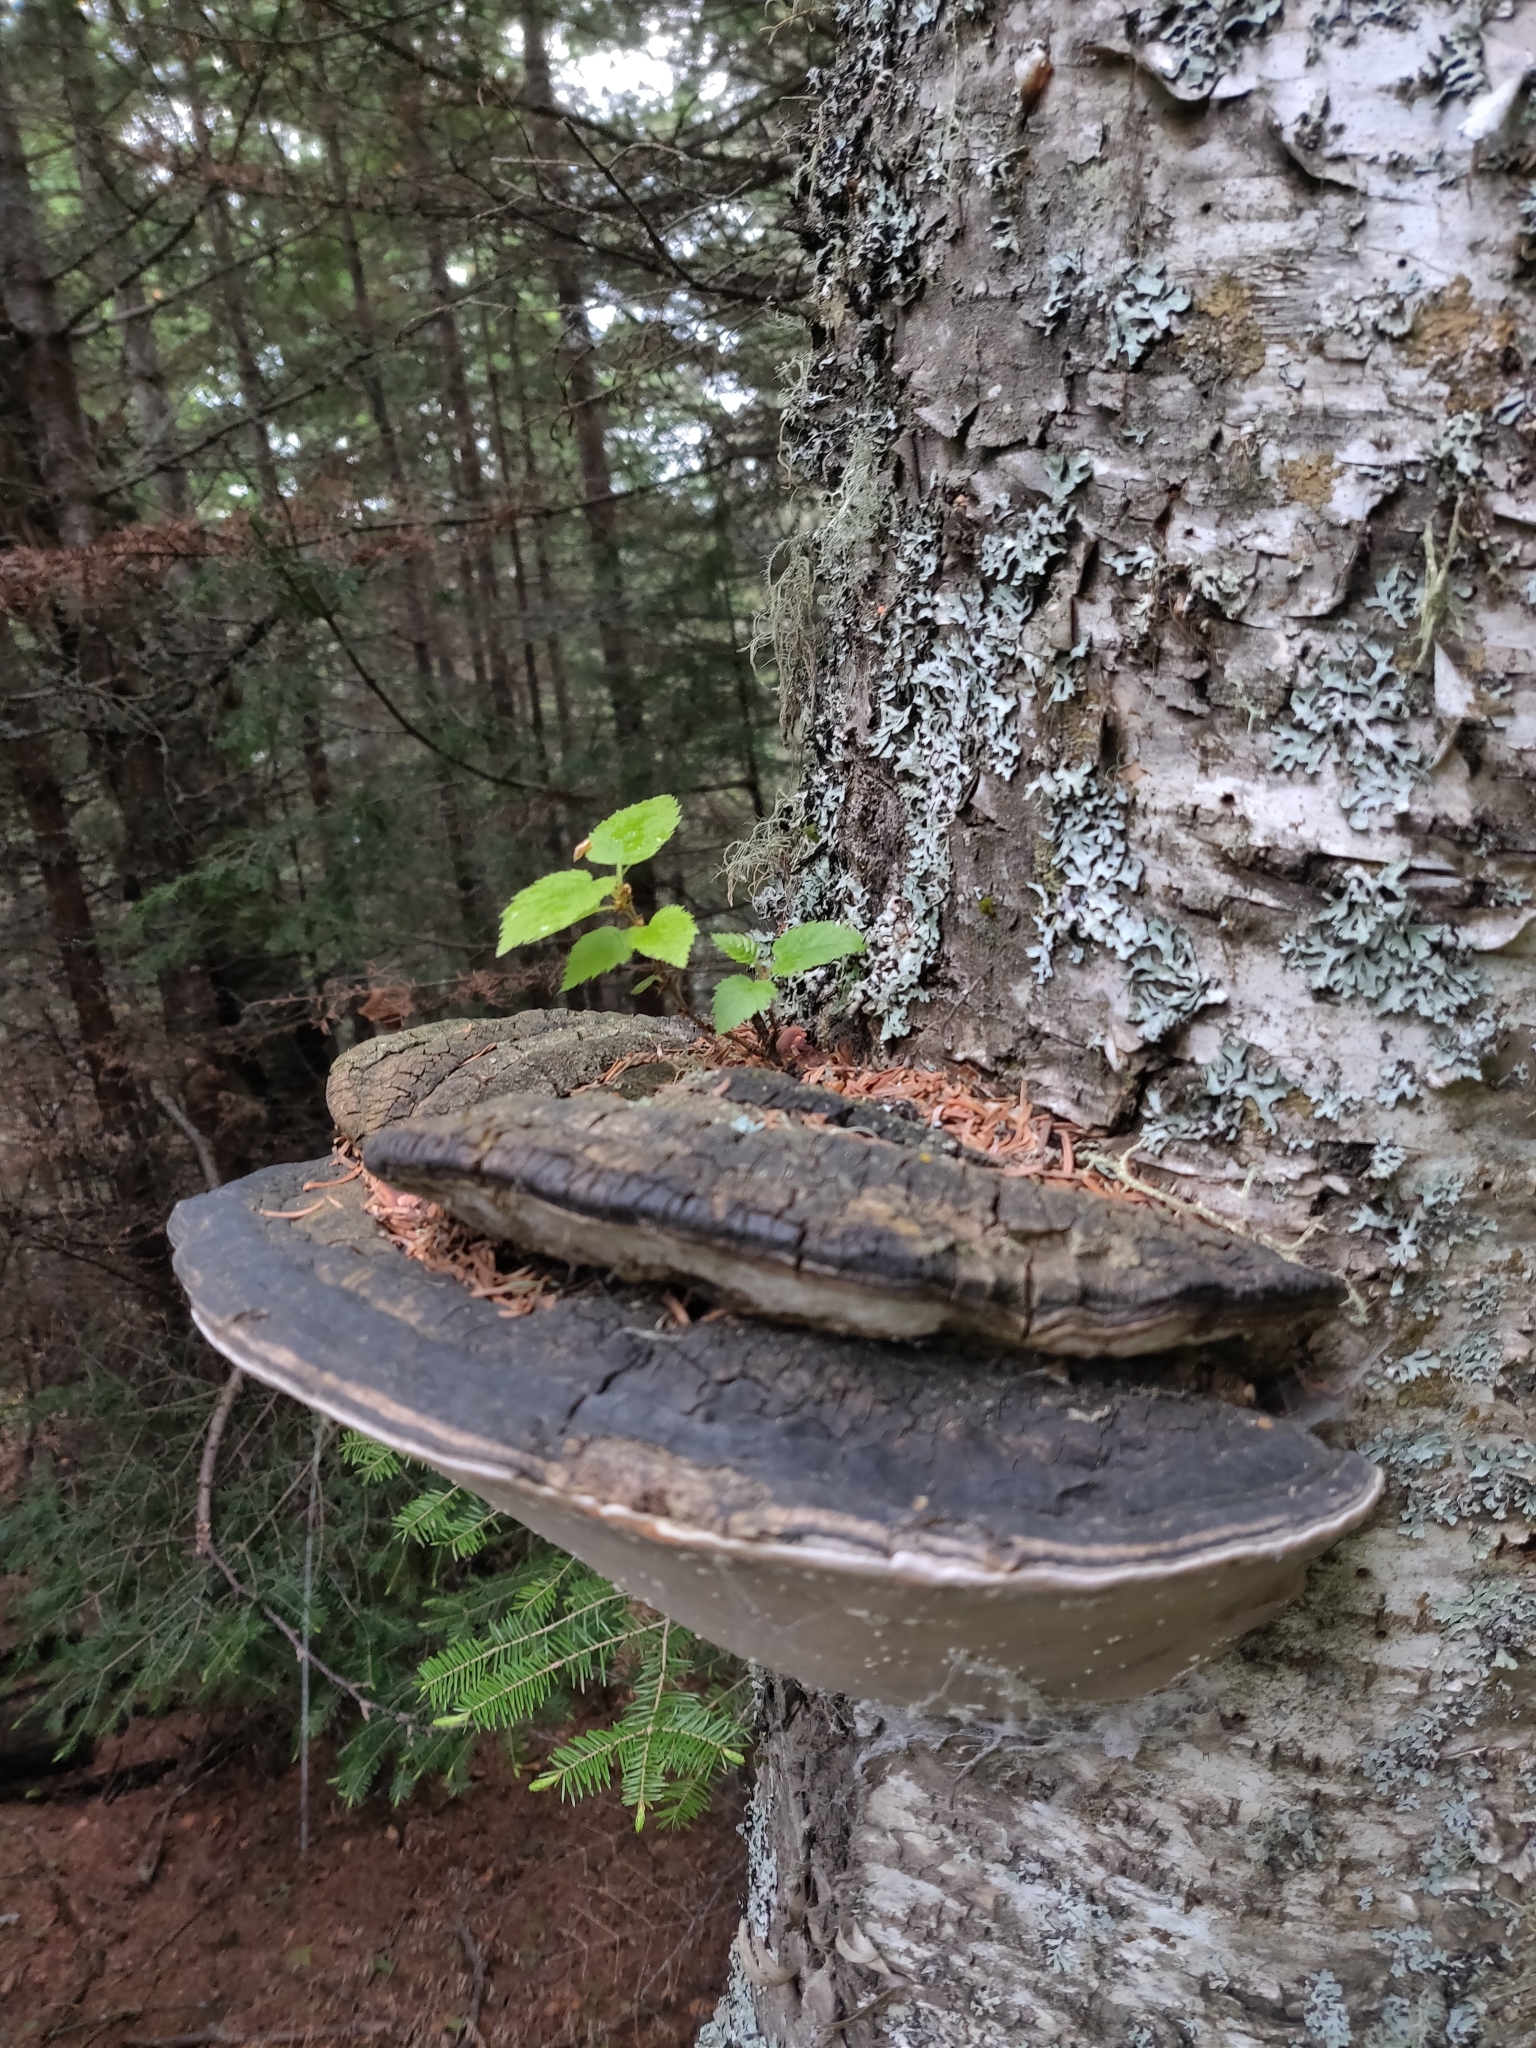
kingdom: Fungi
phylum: Basidiomycota
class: Agaricomycetes
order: Hymenochaetales
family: Hymenochaetaceae
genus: Phellinus
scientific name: Phellinus igniarius
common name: Willow bracket
